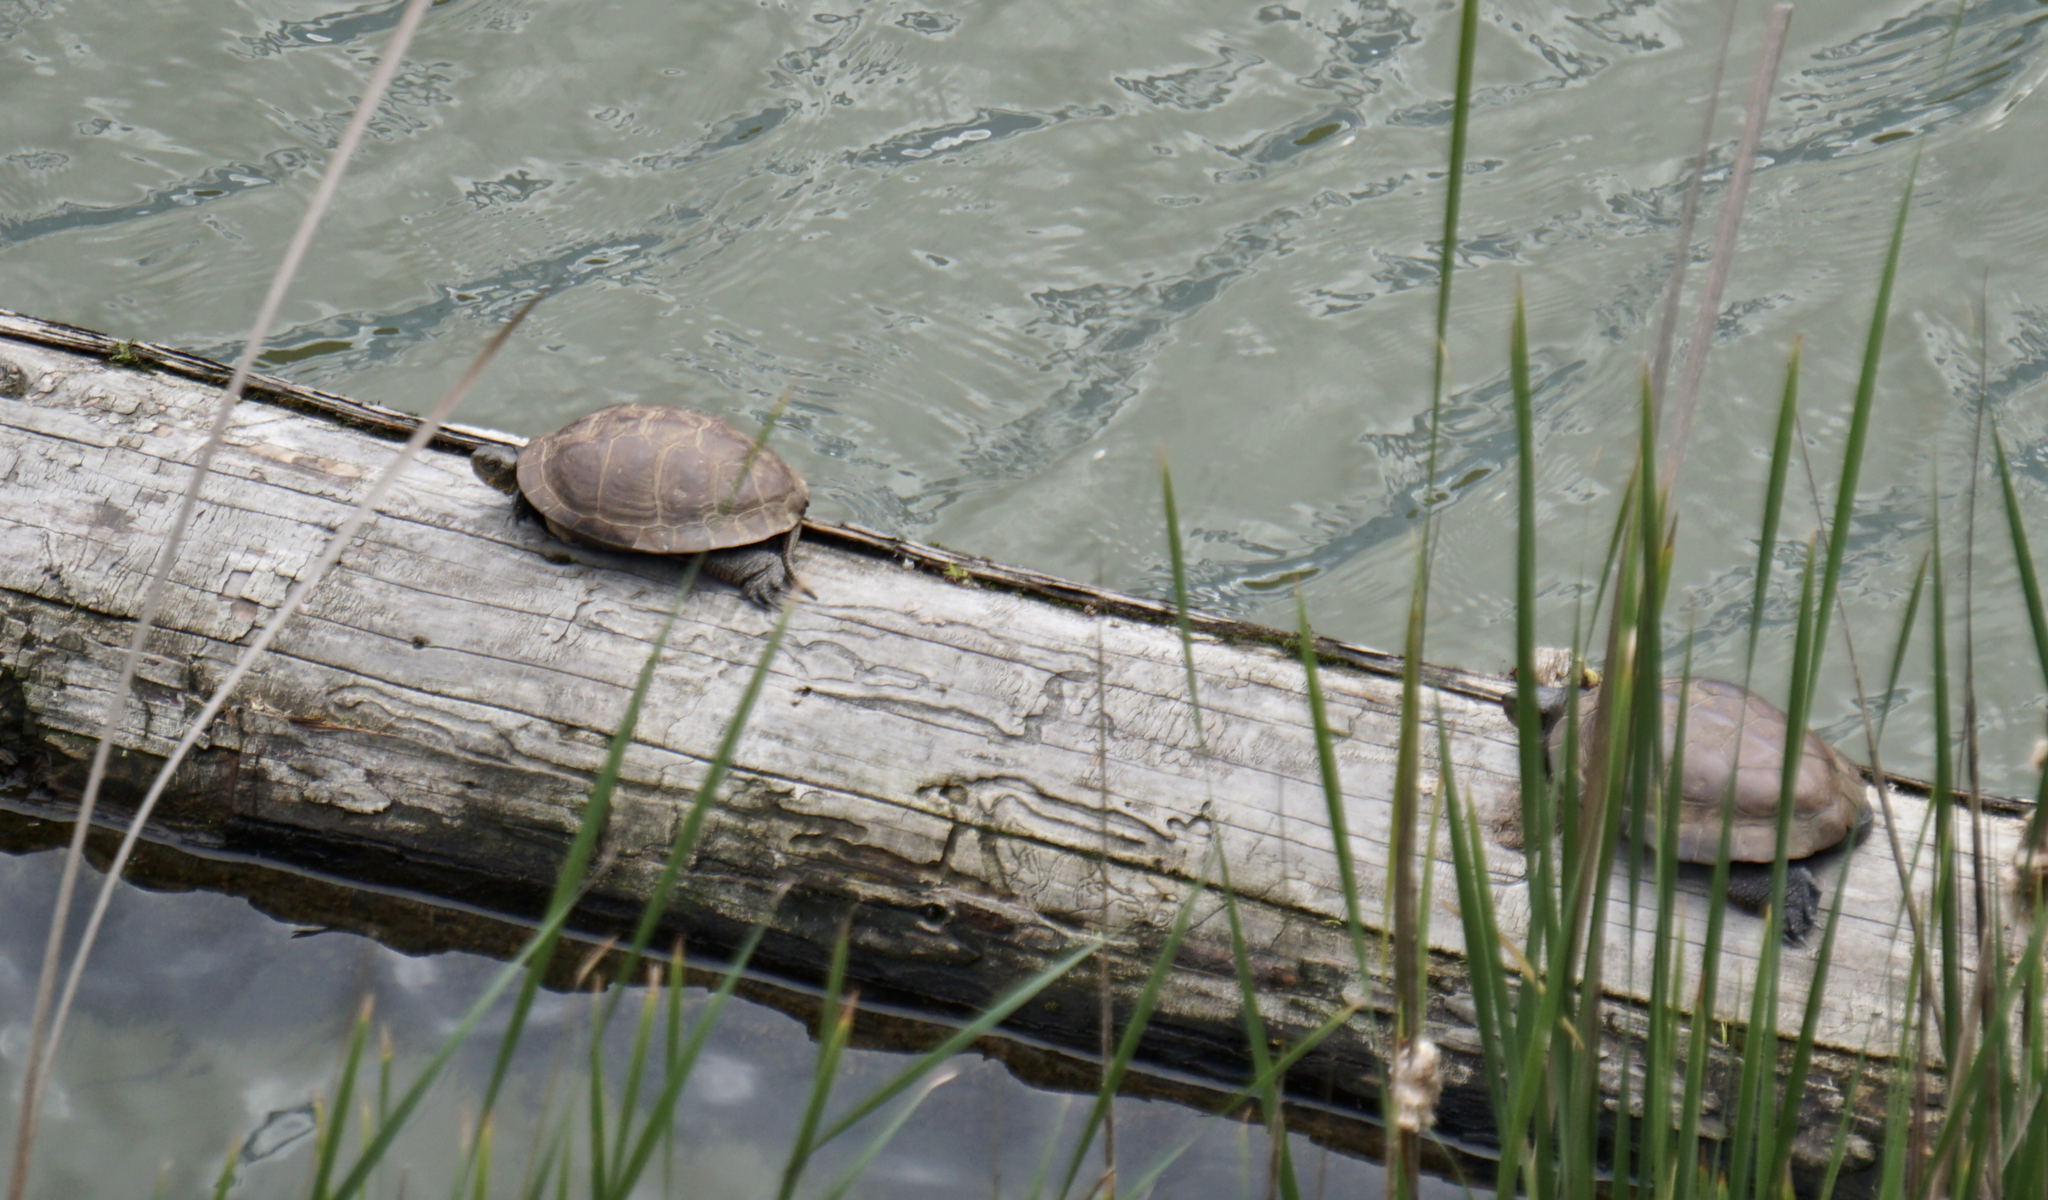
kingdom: Animalia
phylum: Chordata
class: Testudines
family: Emydidae
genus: Actinemys
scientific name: Actinemys marmorata
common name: Western pond turtle
